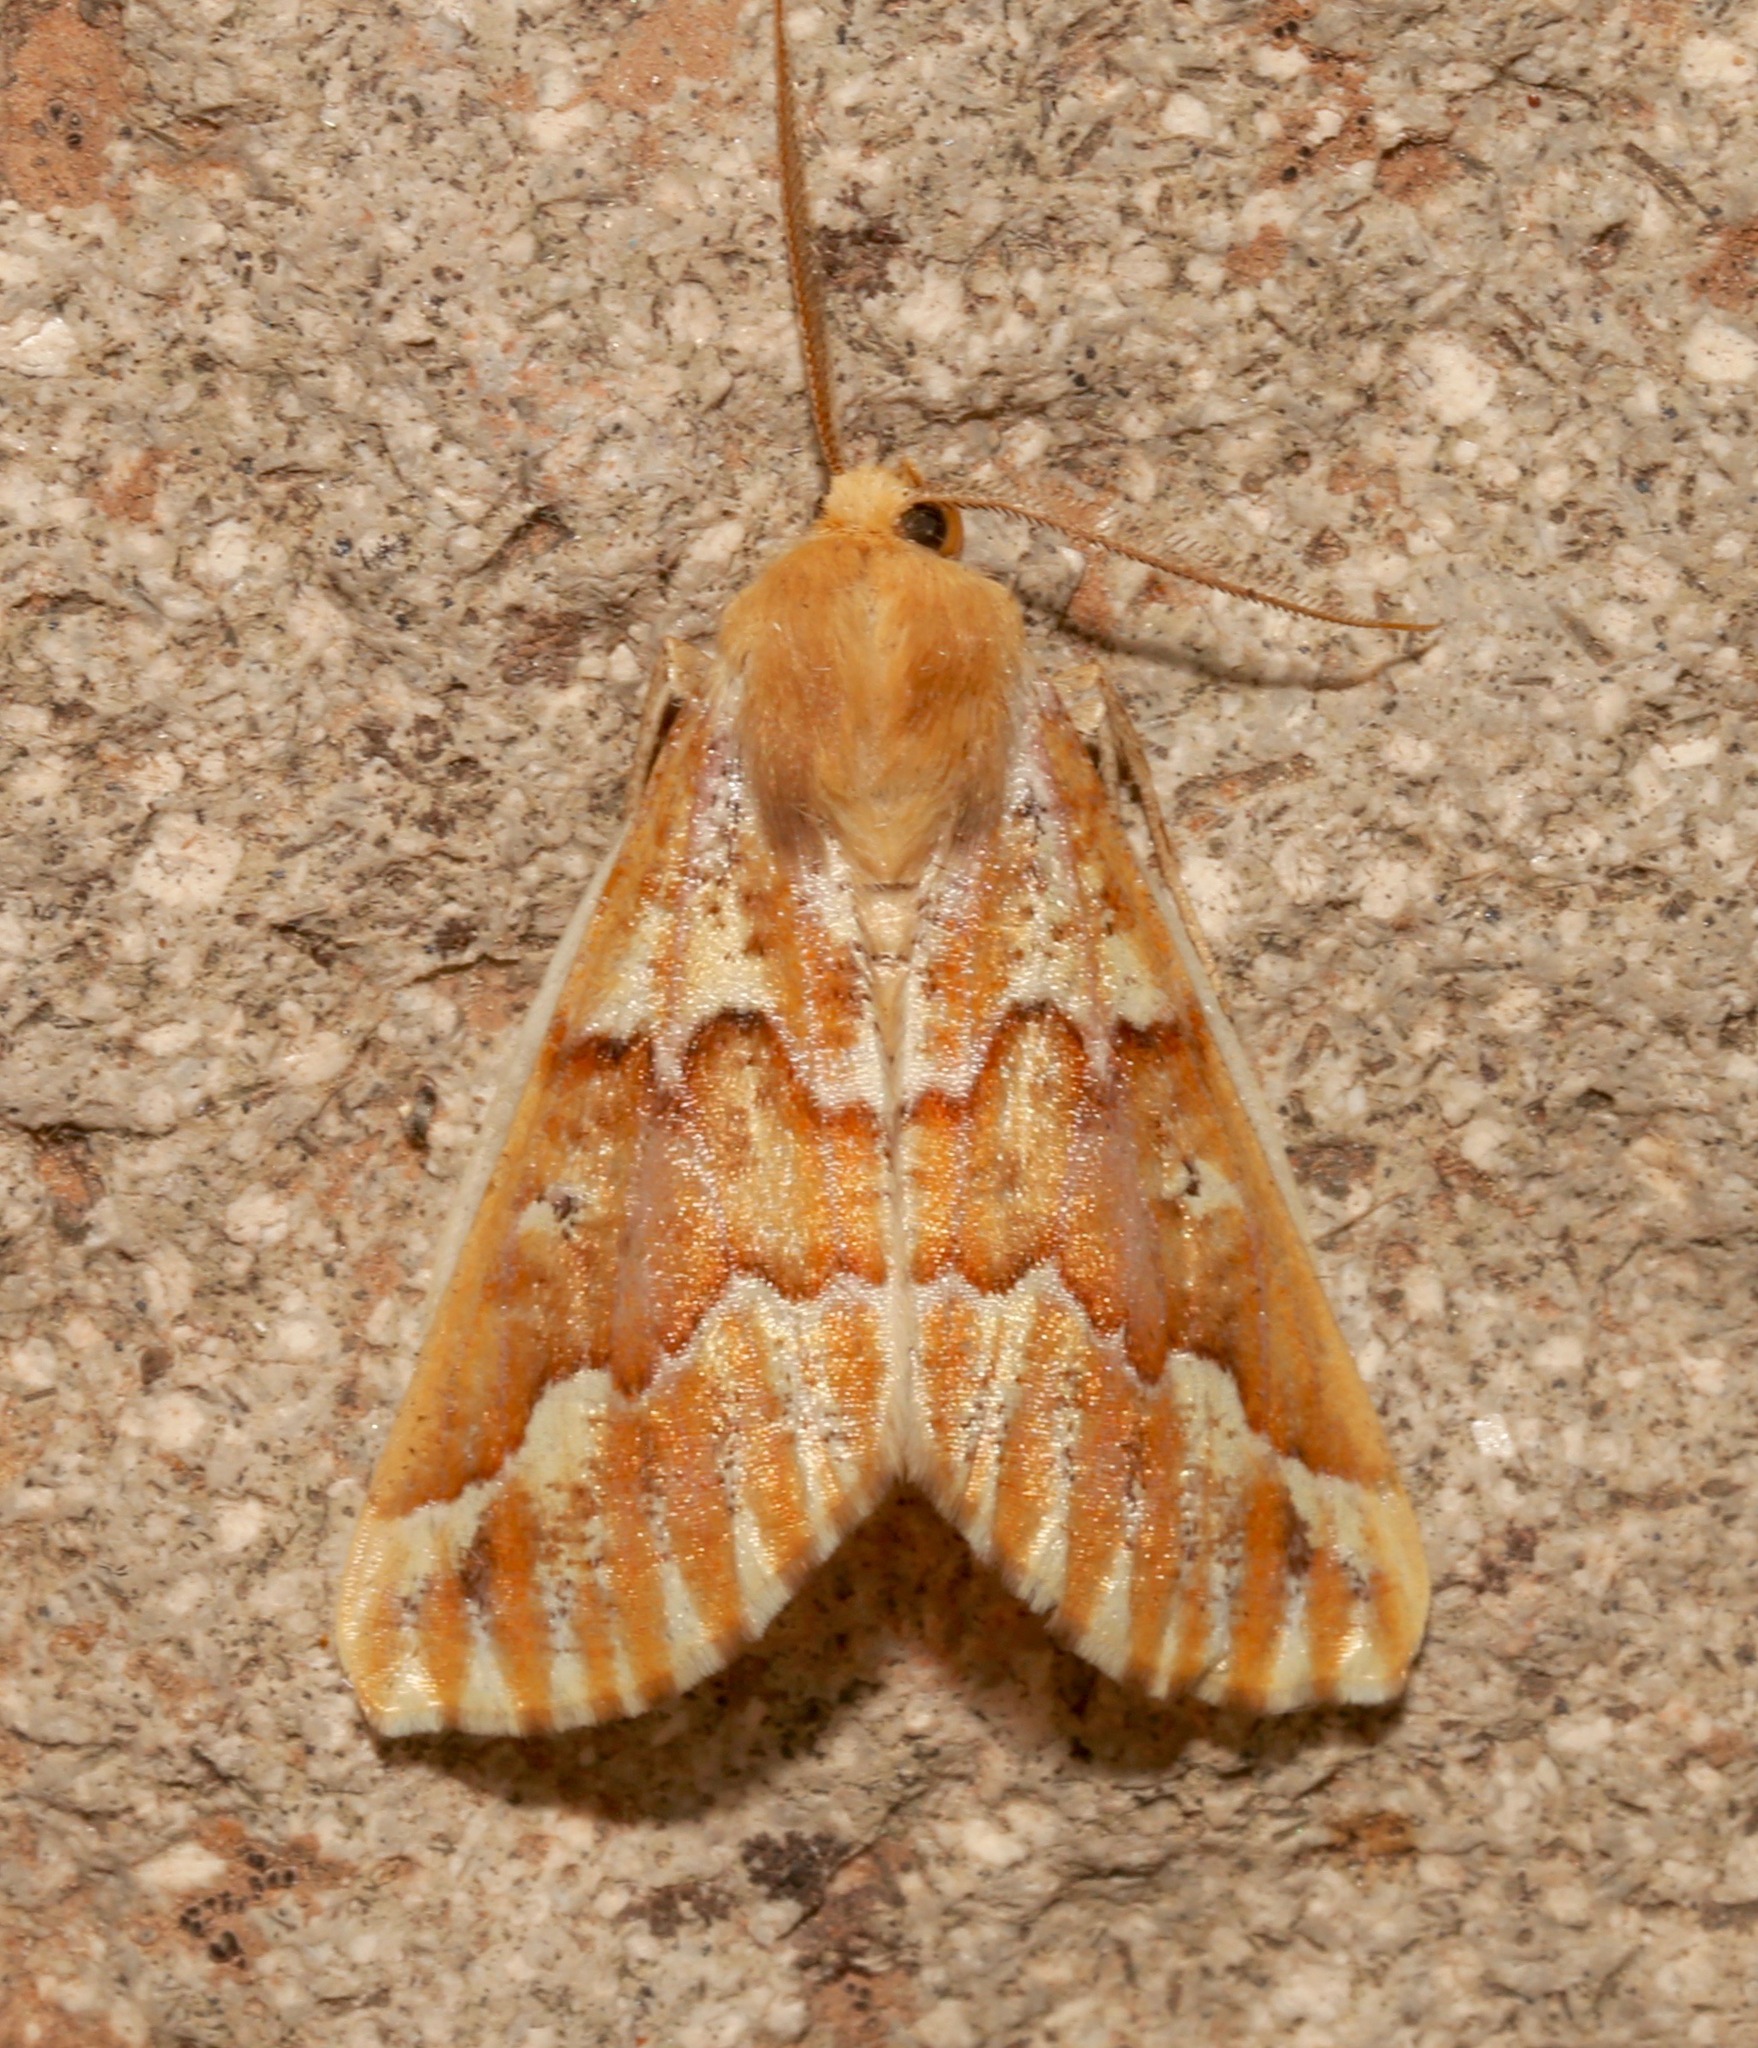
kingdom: Animalia
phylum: Arthropoda
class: Insecta
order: Lepidoptera
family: Geometridae
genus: Caripeta
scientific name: Caripeta aequaliaria
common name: Red girdle moth
